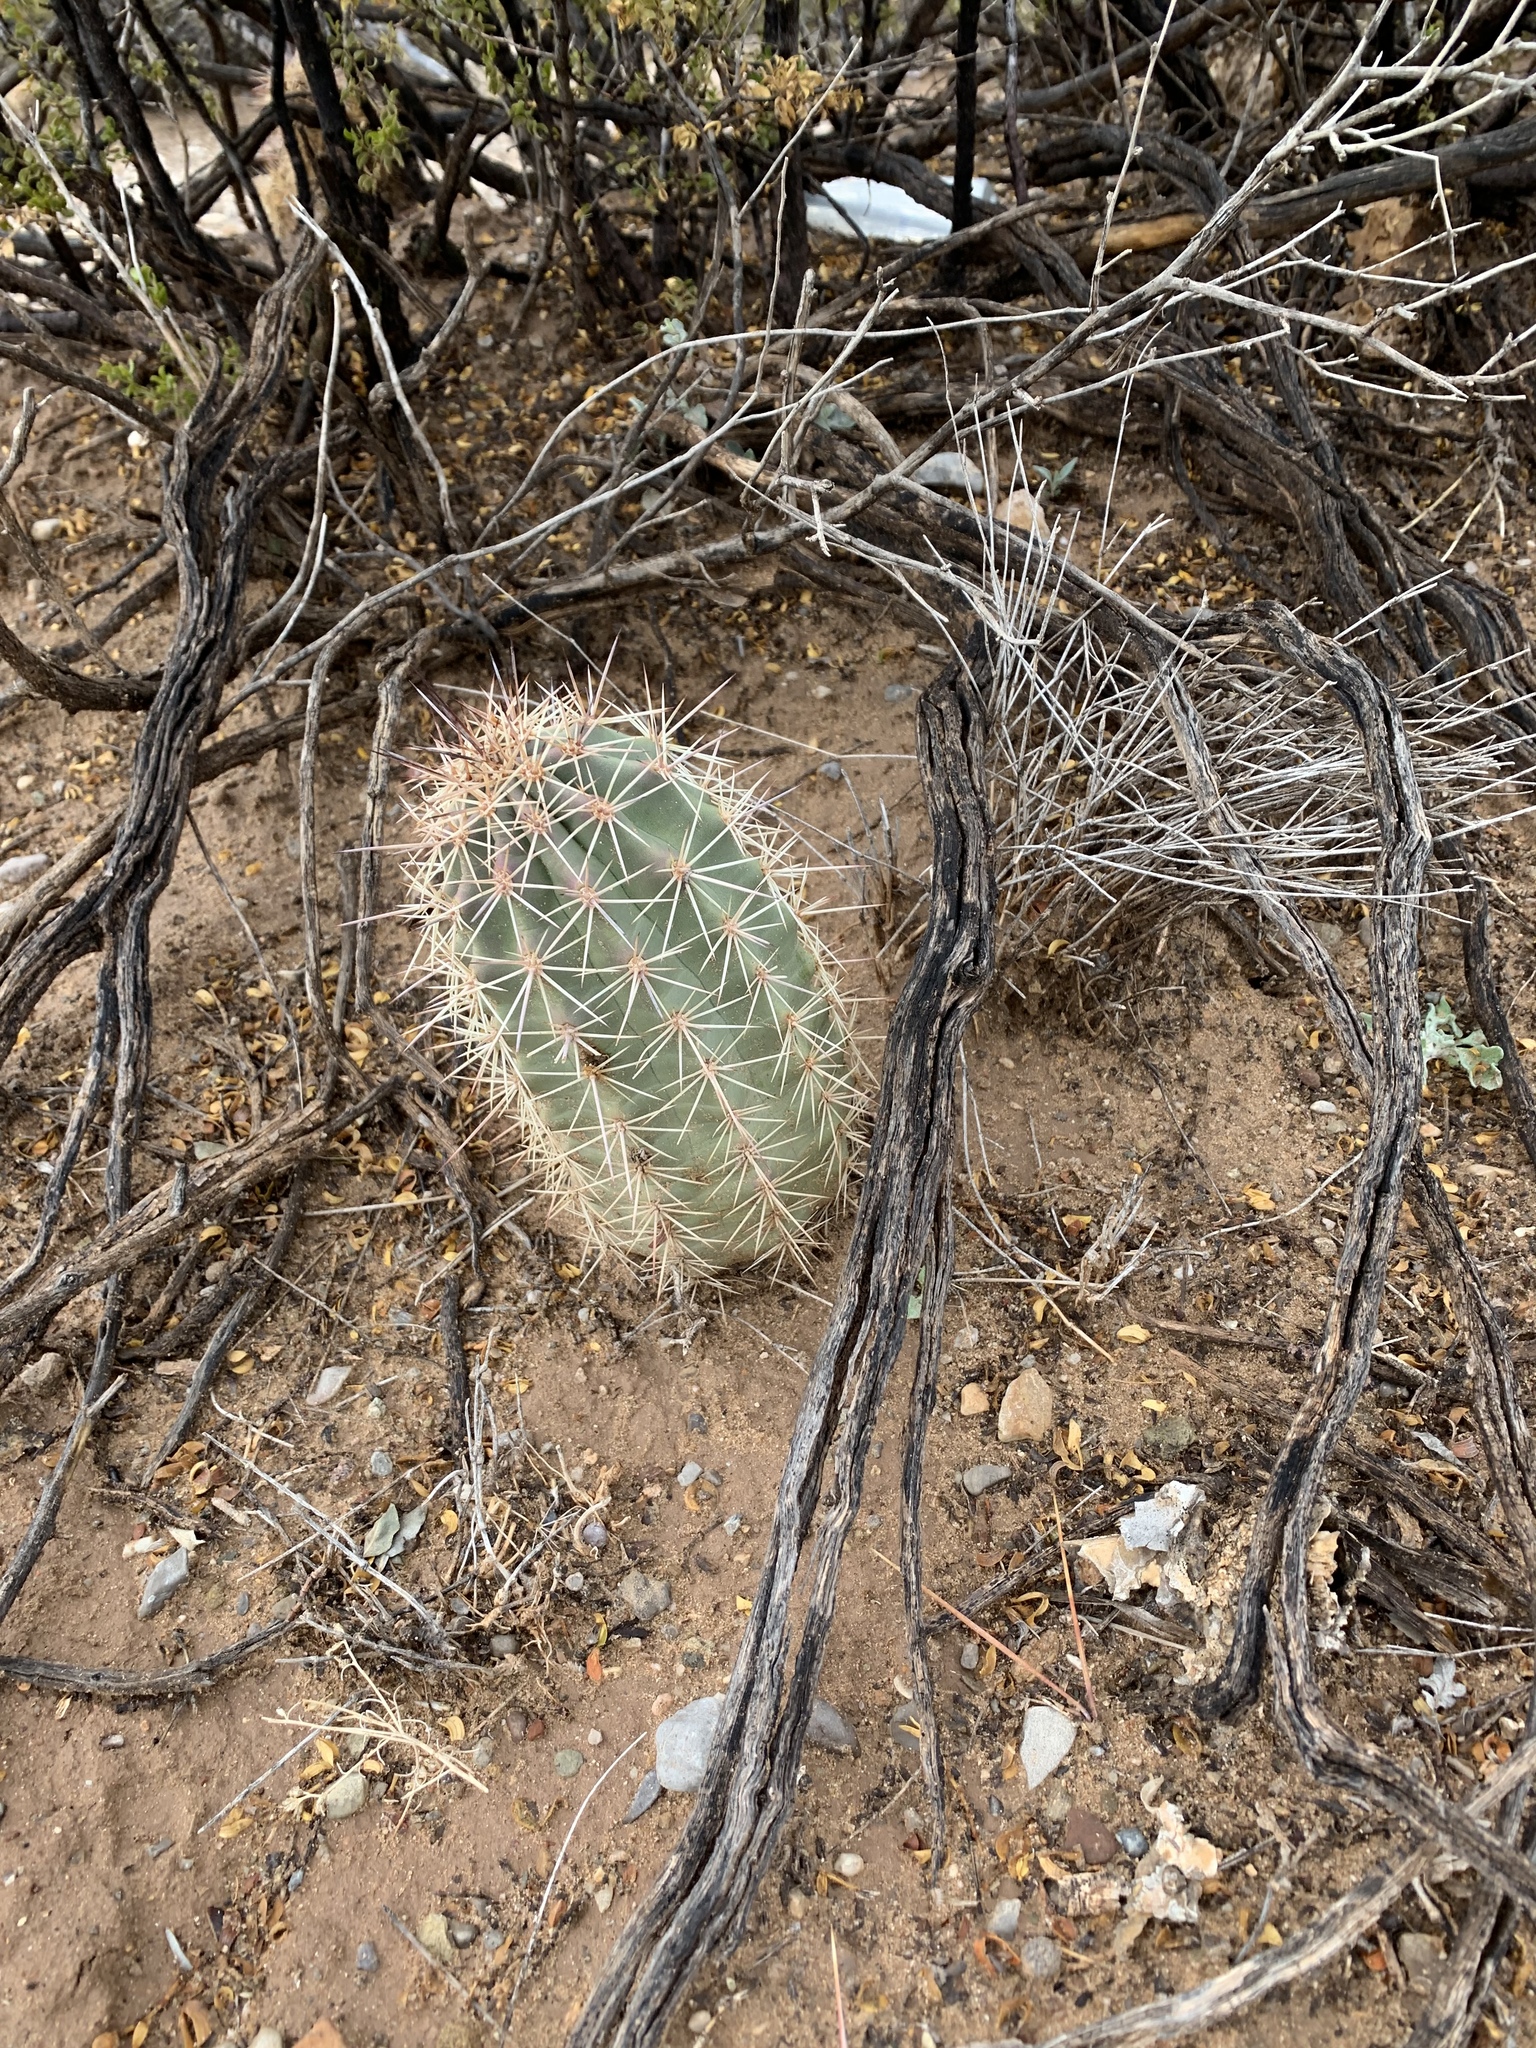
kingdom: Plantae
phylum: Tracheophyta
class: Magnoliopsida
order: Caryophyllales
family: Cactaceae
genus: Echinocereus
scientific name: Echinocereus coccineus
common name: Scarlet hedgehog cactus
